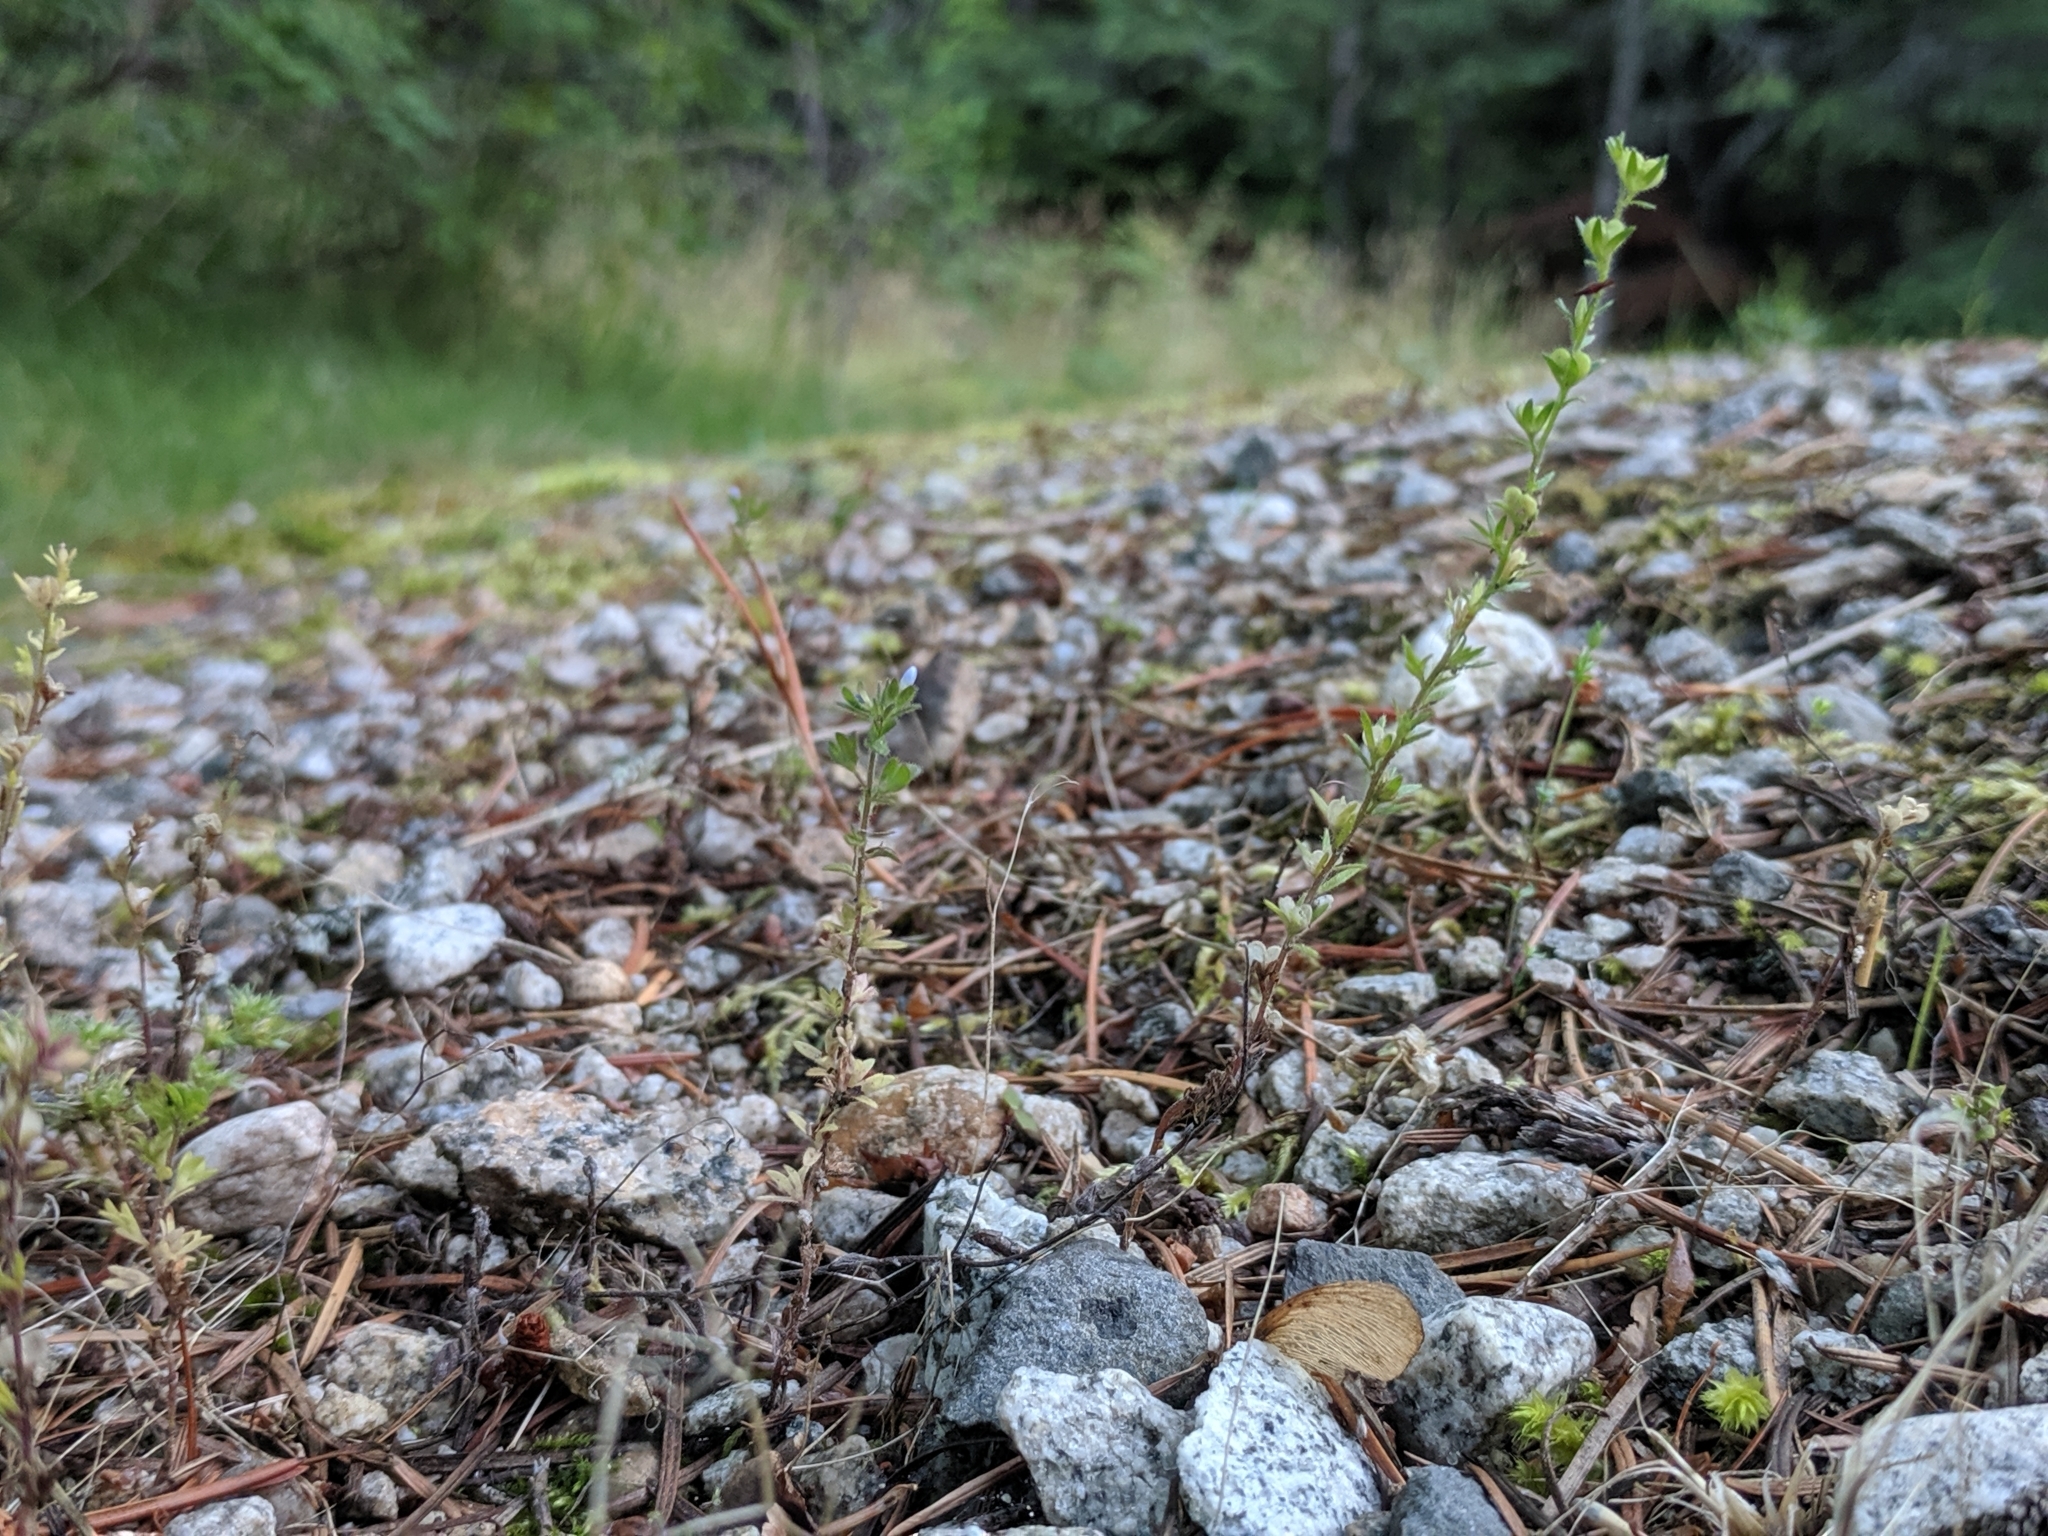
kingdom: Plantae
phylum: Tracheophyta
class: Magnoliopsida
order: Lamiales
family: Plantaginaceae
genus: Veronica
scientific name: Veronica verna
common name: Spring speedwell
